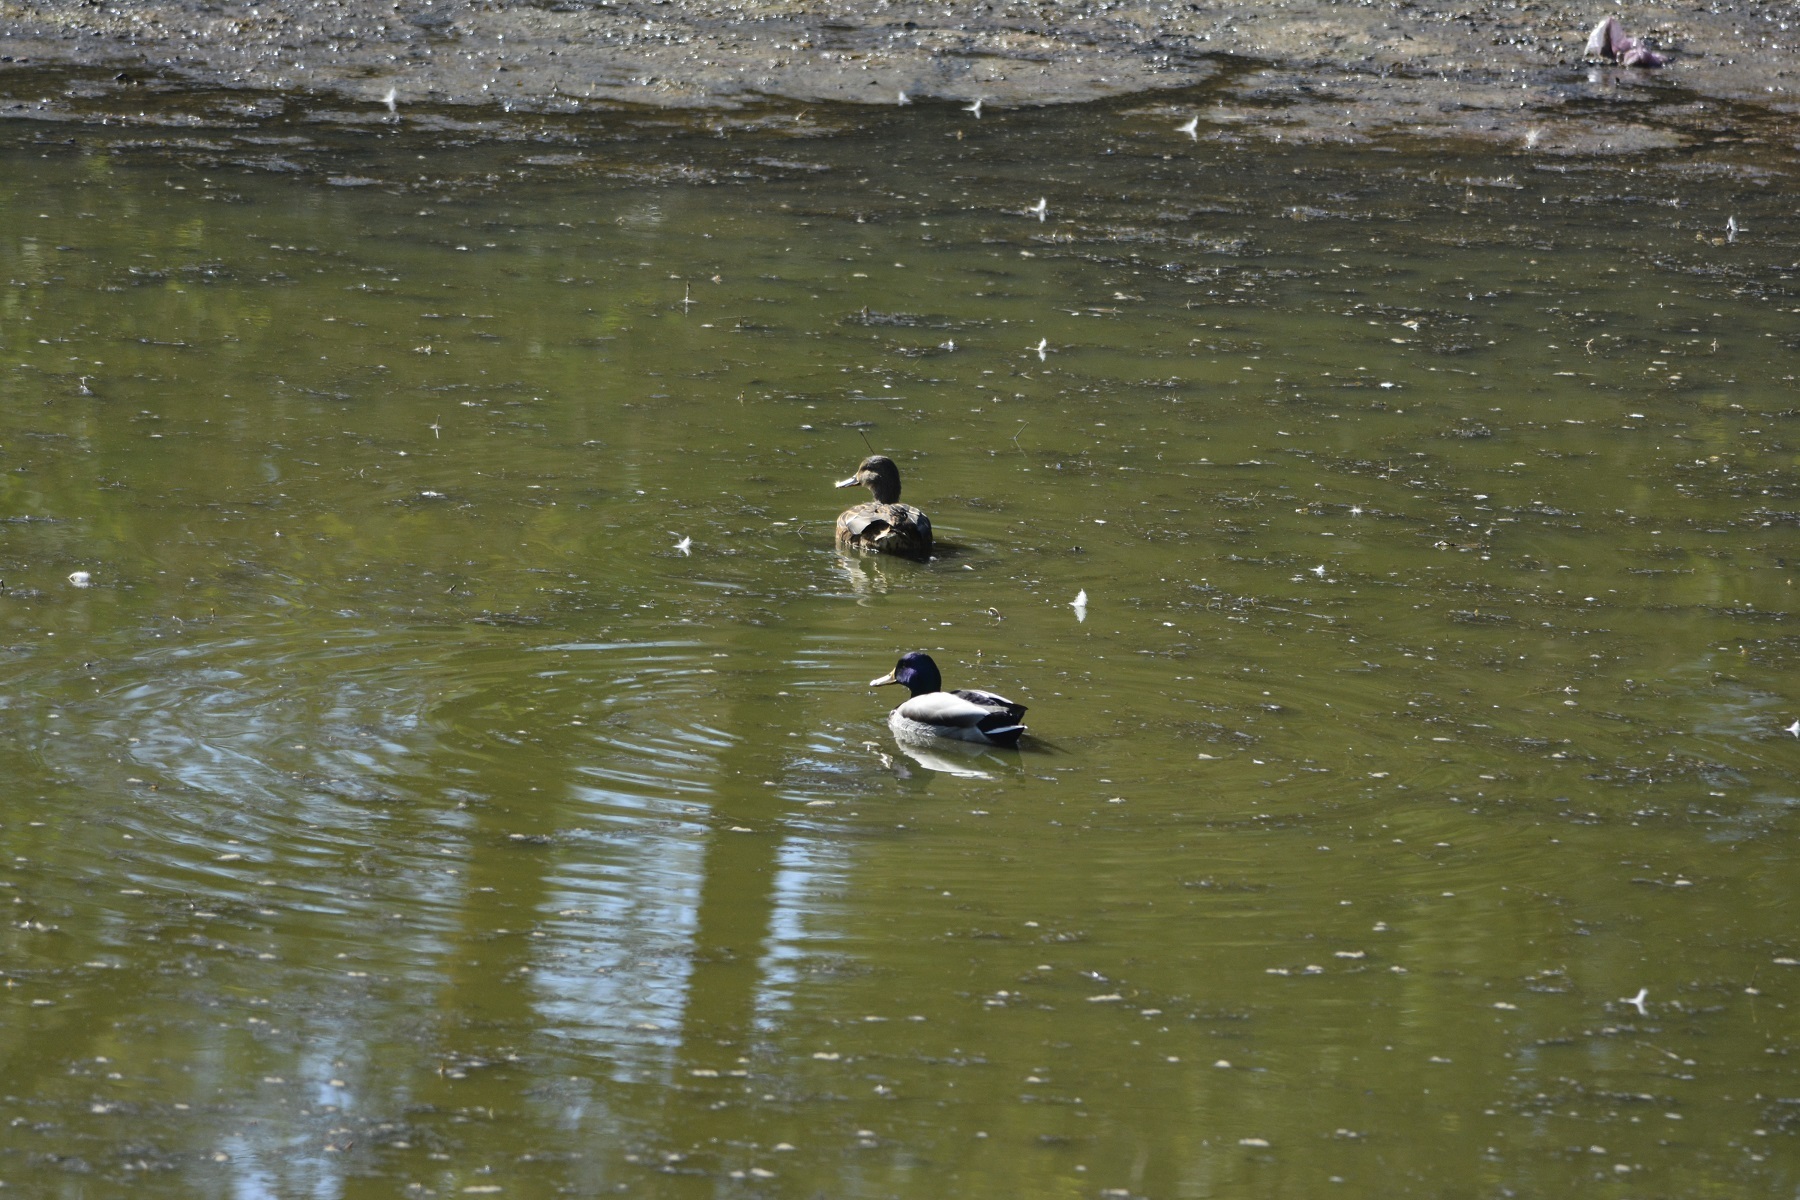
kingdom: Animalia
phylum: Chordata
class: Aves
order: Anseriformes
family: Anatidae
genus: Anas
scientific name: Anas platyrhynchos
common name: Mallard
